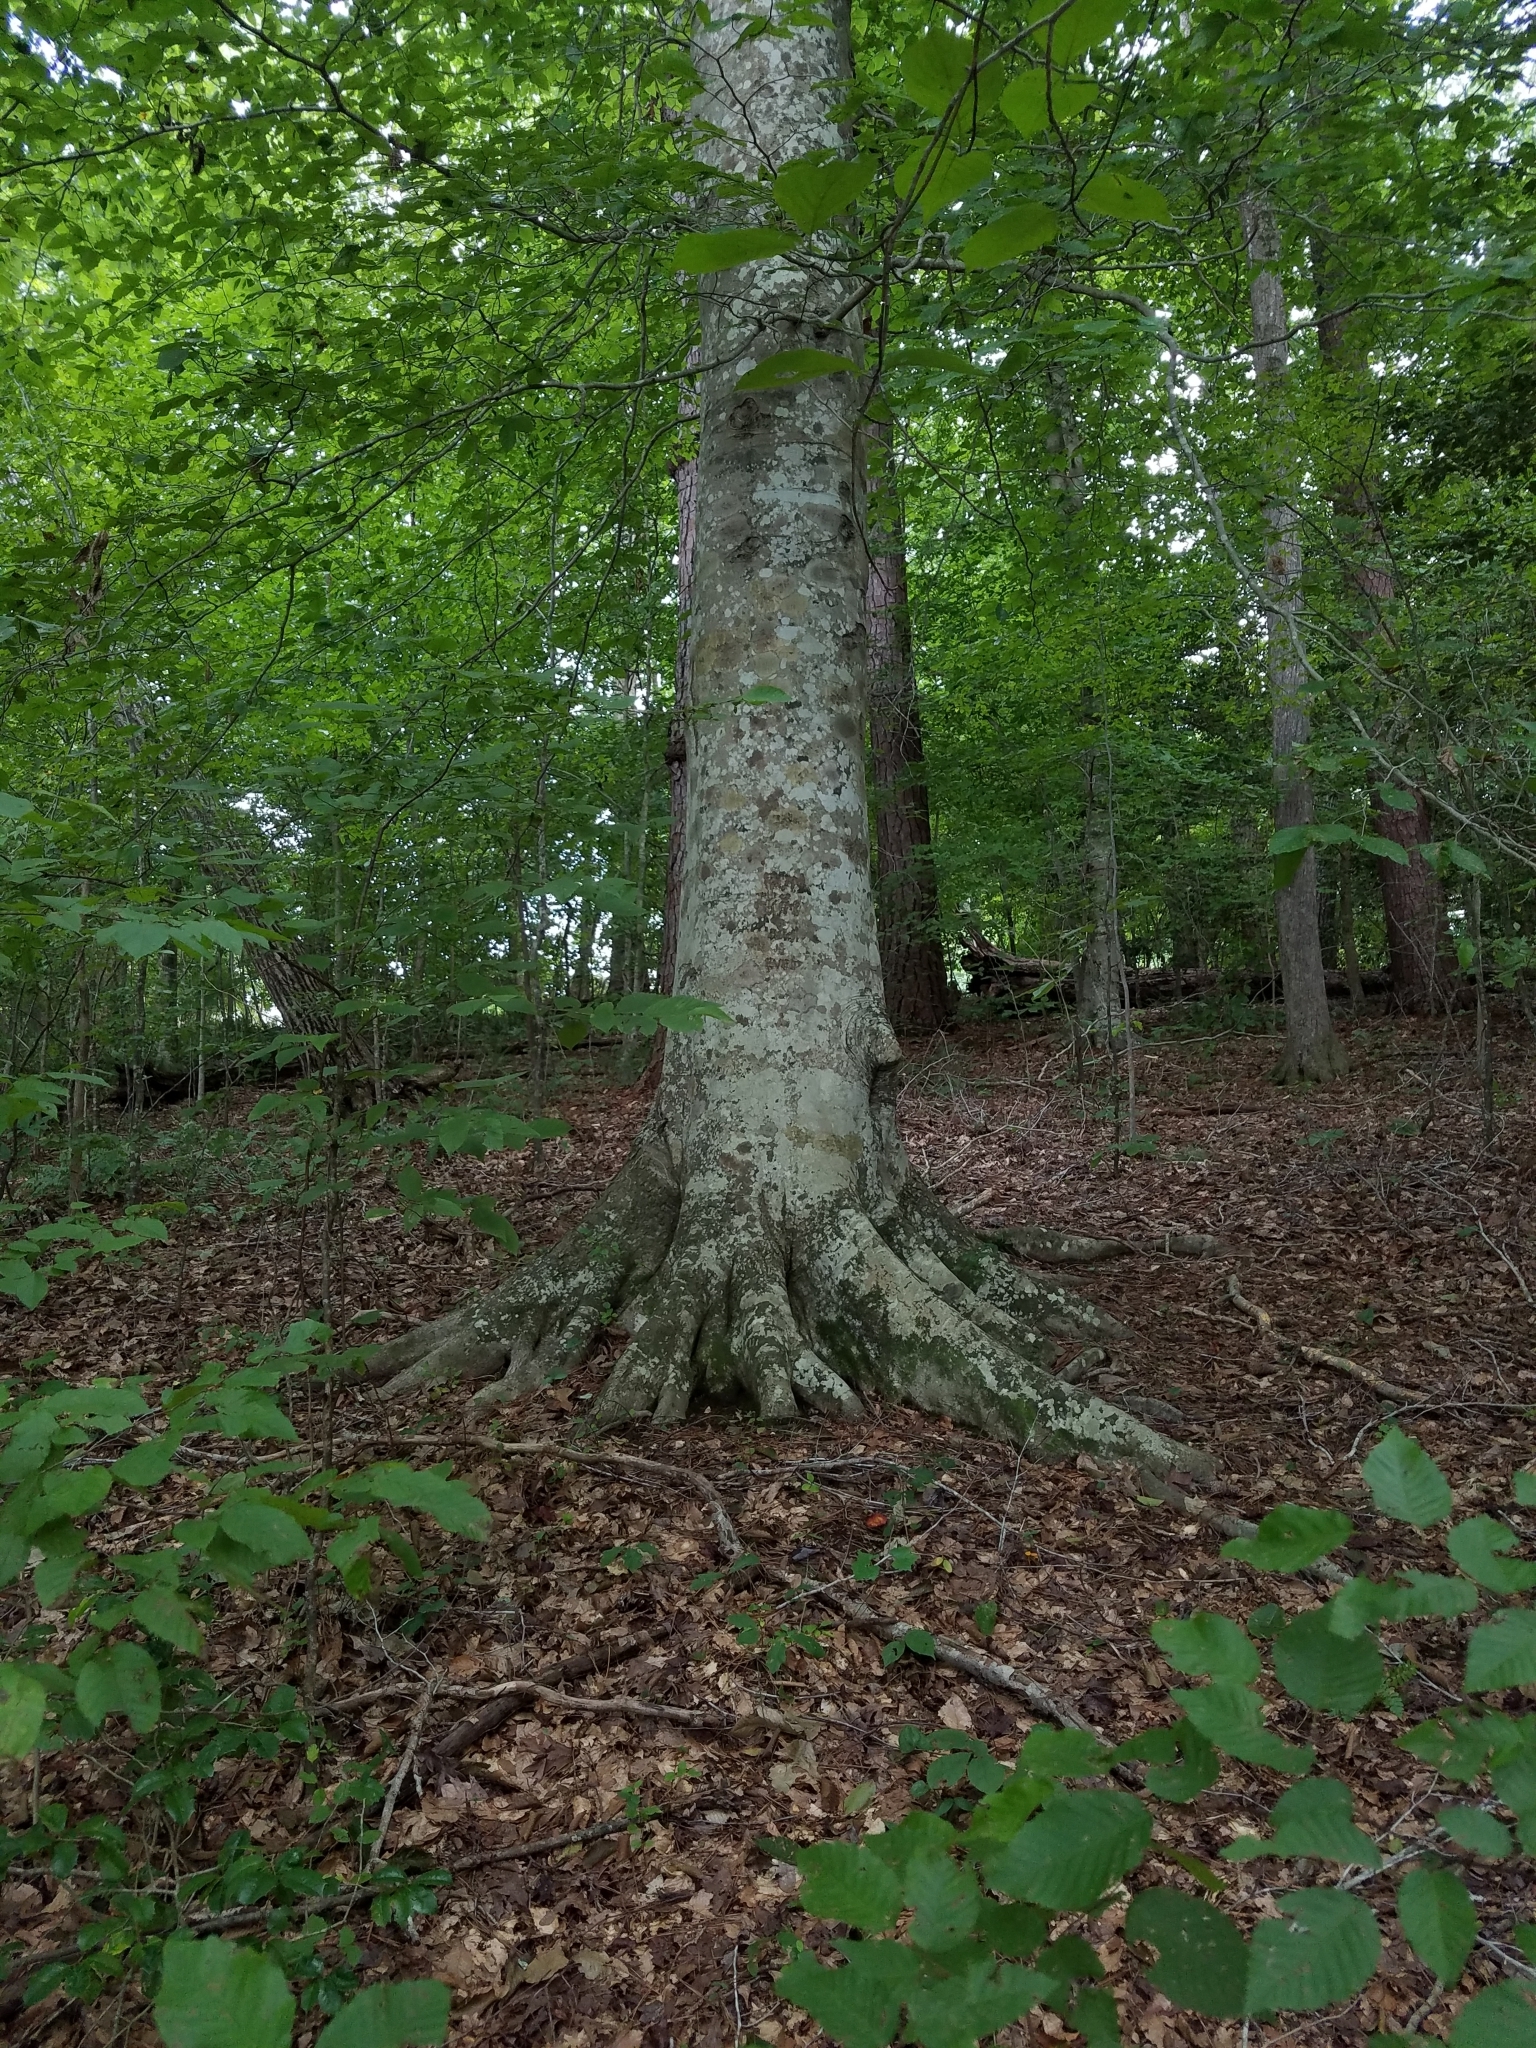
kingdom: Plantae
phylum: Tracheophyta
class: Magnoliopsida
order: Fagales
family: Fagaceae
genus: Fagus
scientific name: Fagus grandifolia
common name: American beech
